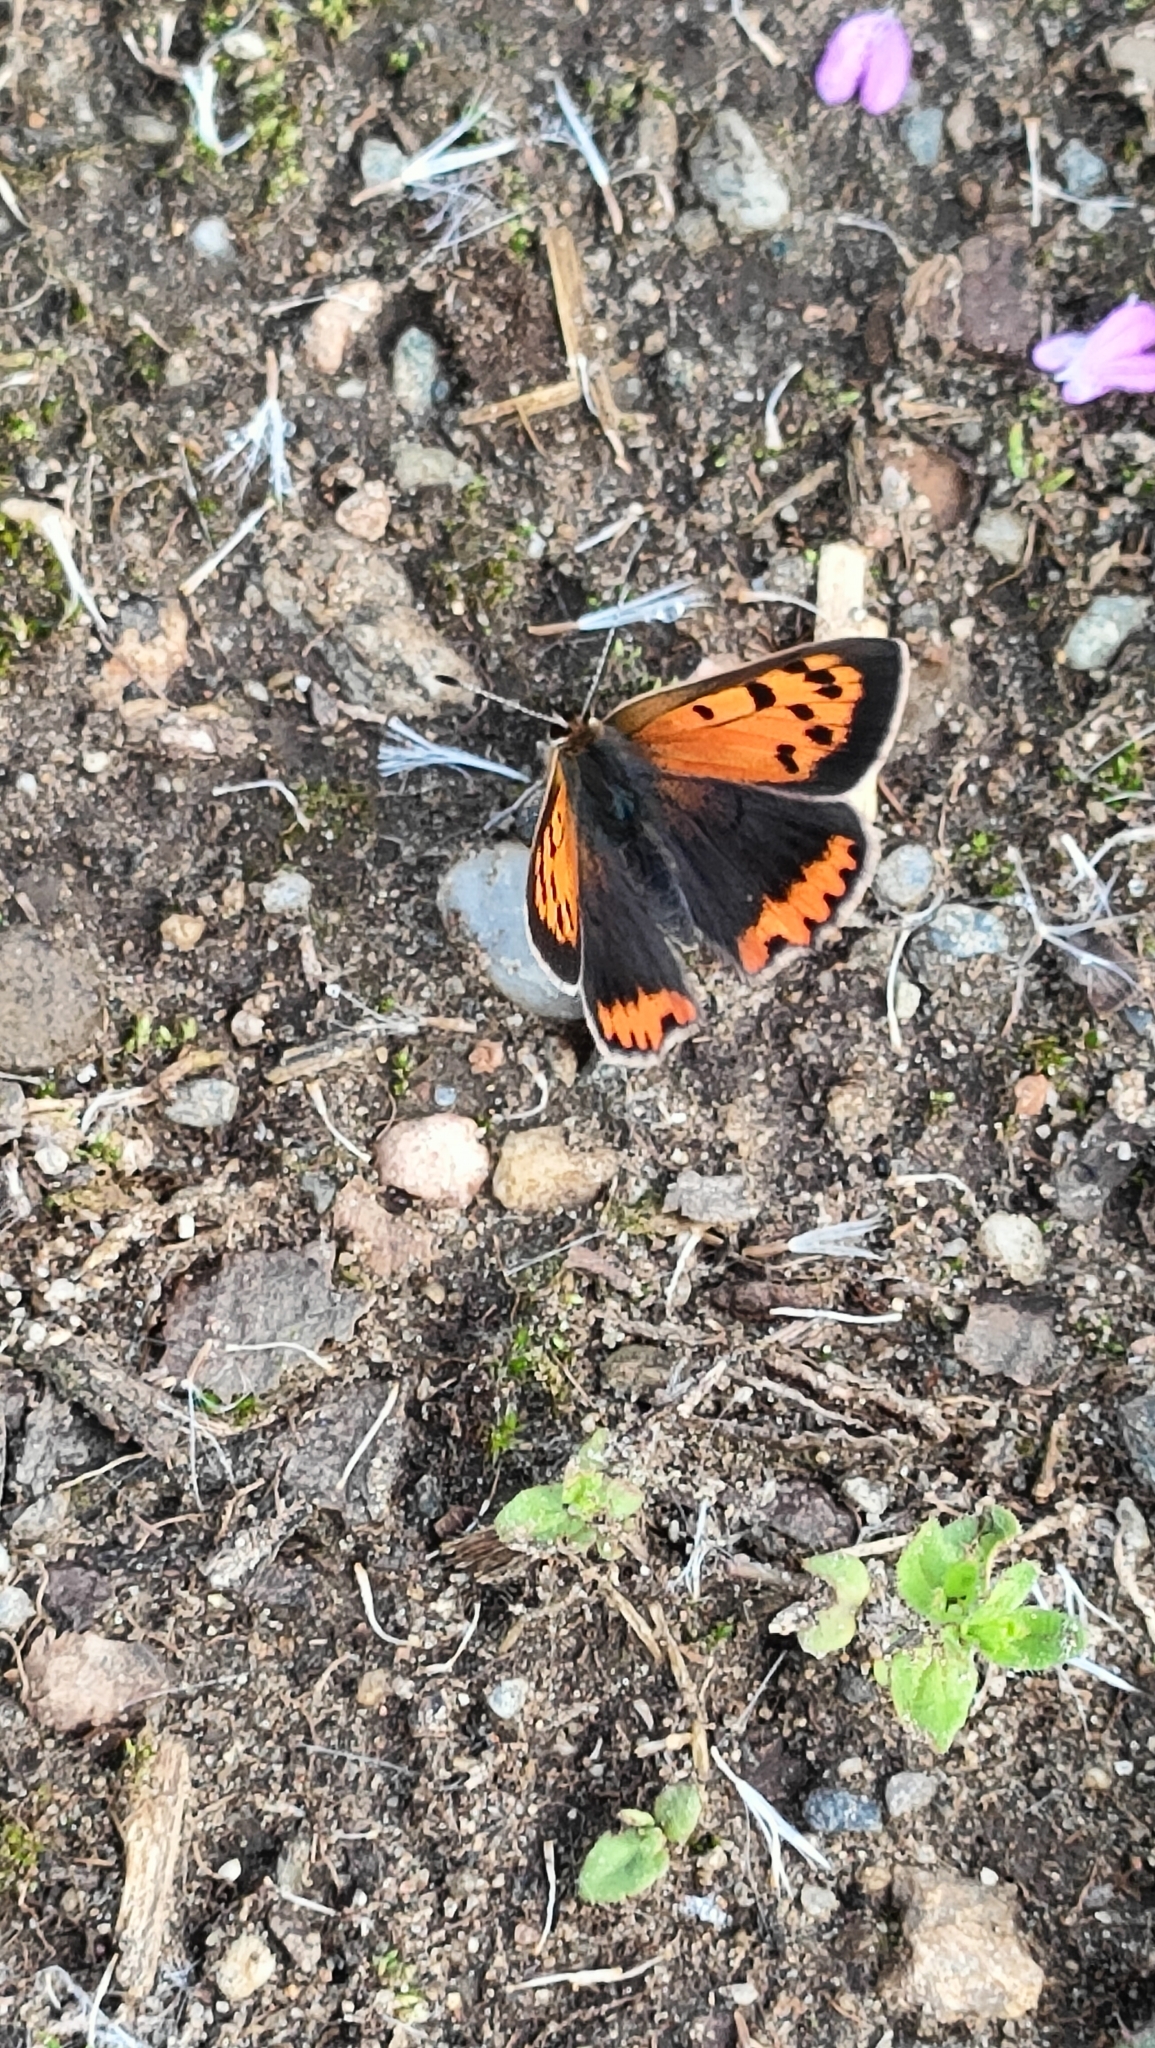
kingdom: Animalia
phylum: Arthropoda
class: Insecta
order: Lepidoptera
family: Lycaenidae
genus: Lycaena
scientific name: Lycaena phlaeas
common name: Small copper
